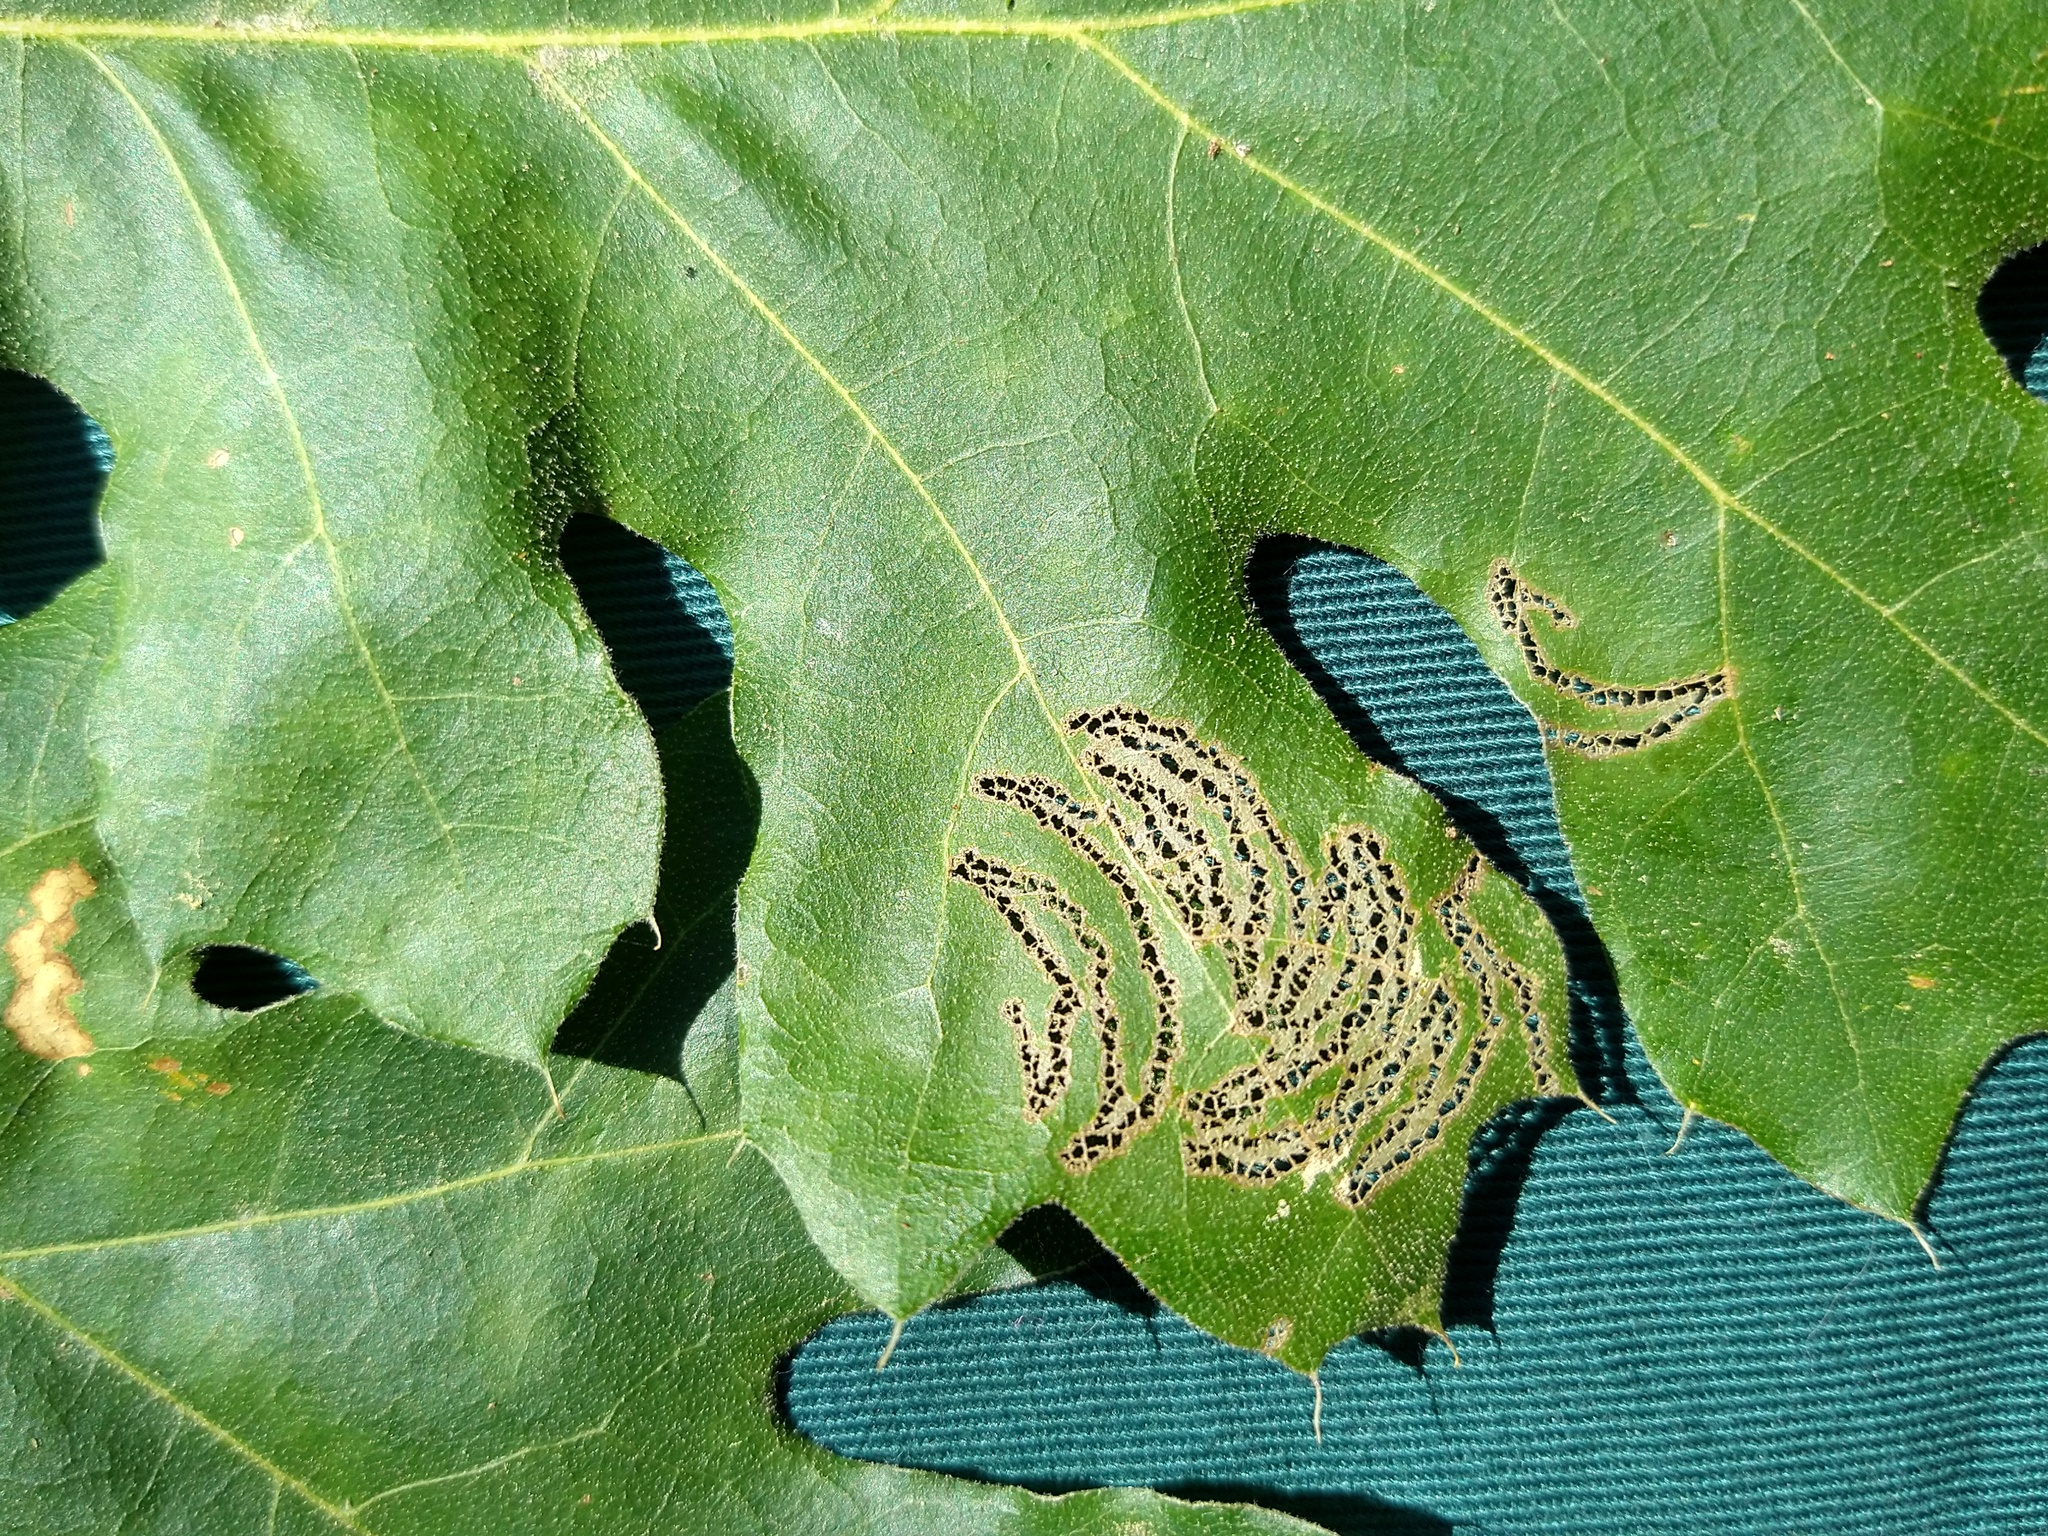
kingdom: Plantae
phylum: Tracheophyta
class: Magnoliopsida
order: Fagales
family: Fagaceae
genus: Quercus
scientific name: Quercus kelloggii
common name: California black oak
